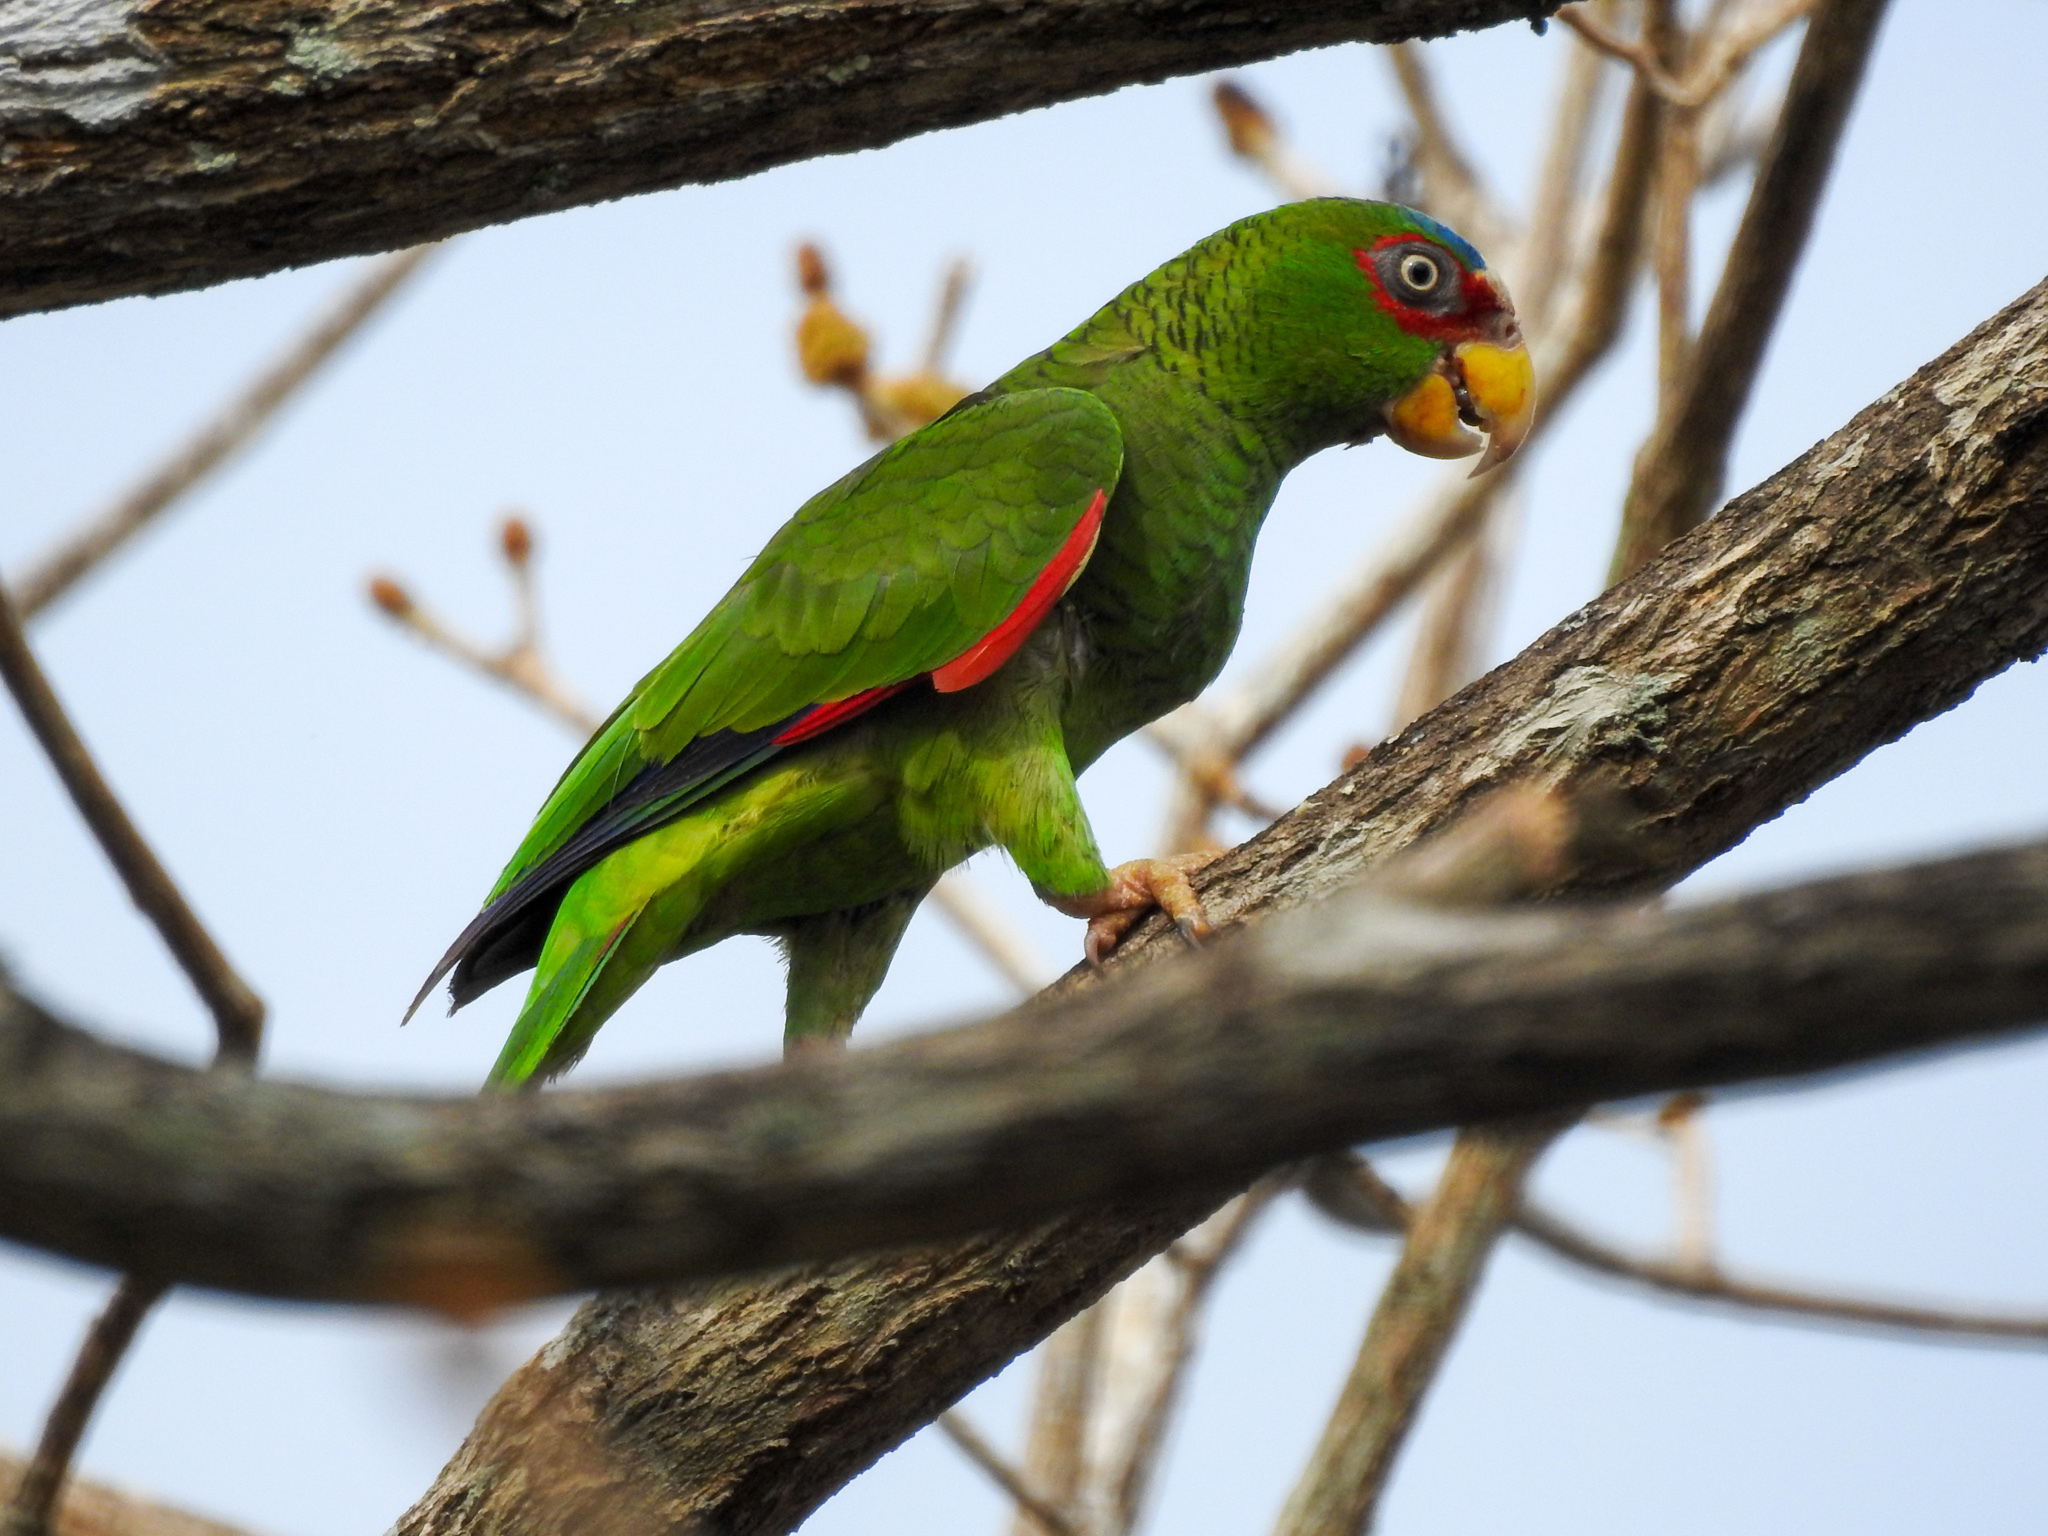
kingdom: Animalia
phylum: Chordata
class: Aves
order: Psittaciformes
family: Psittacidae
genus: Amazona
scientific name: Amazona albifrons
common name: White-fronted amazon
